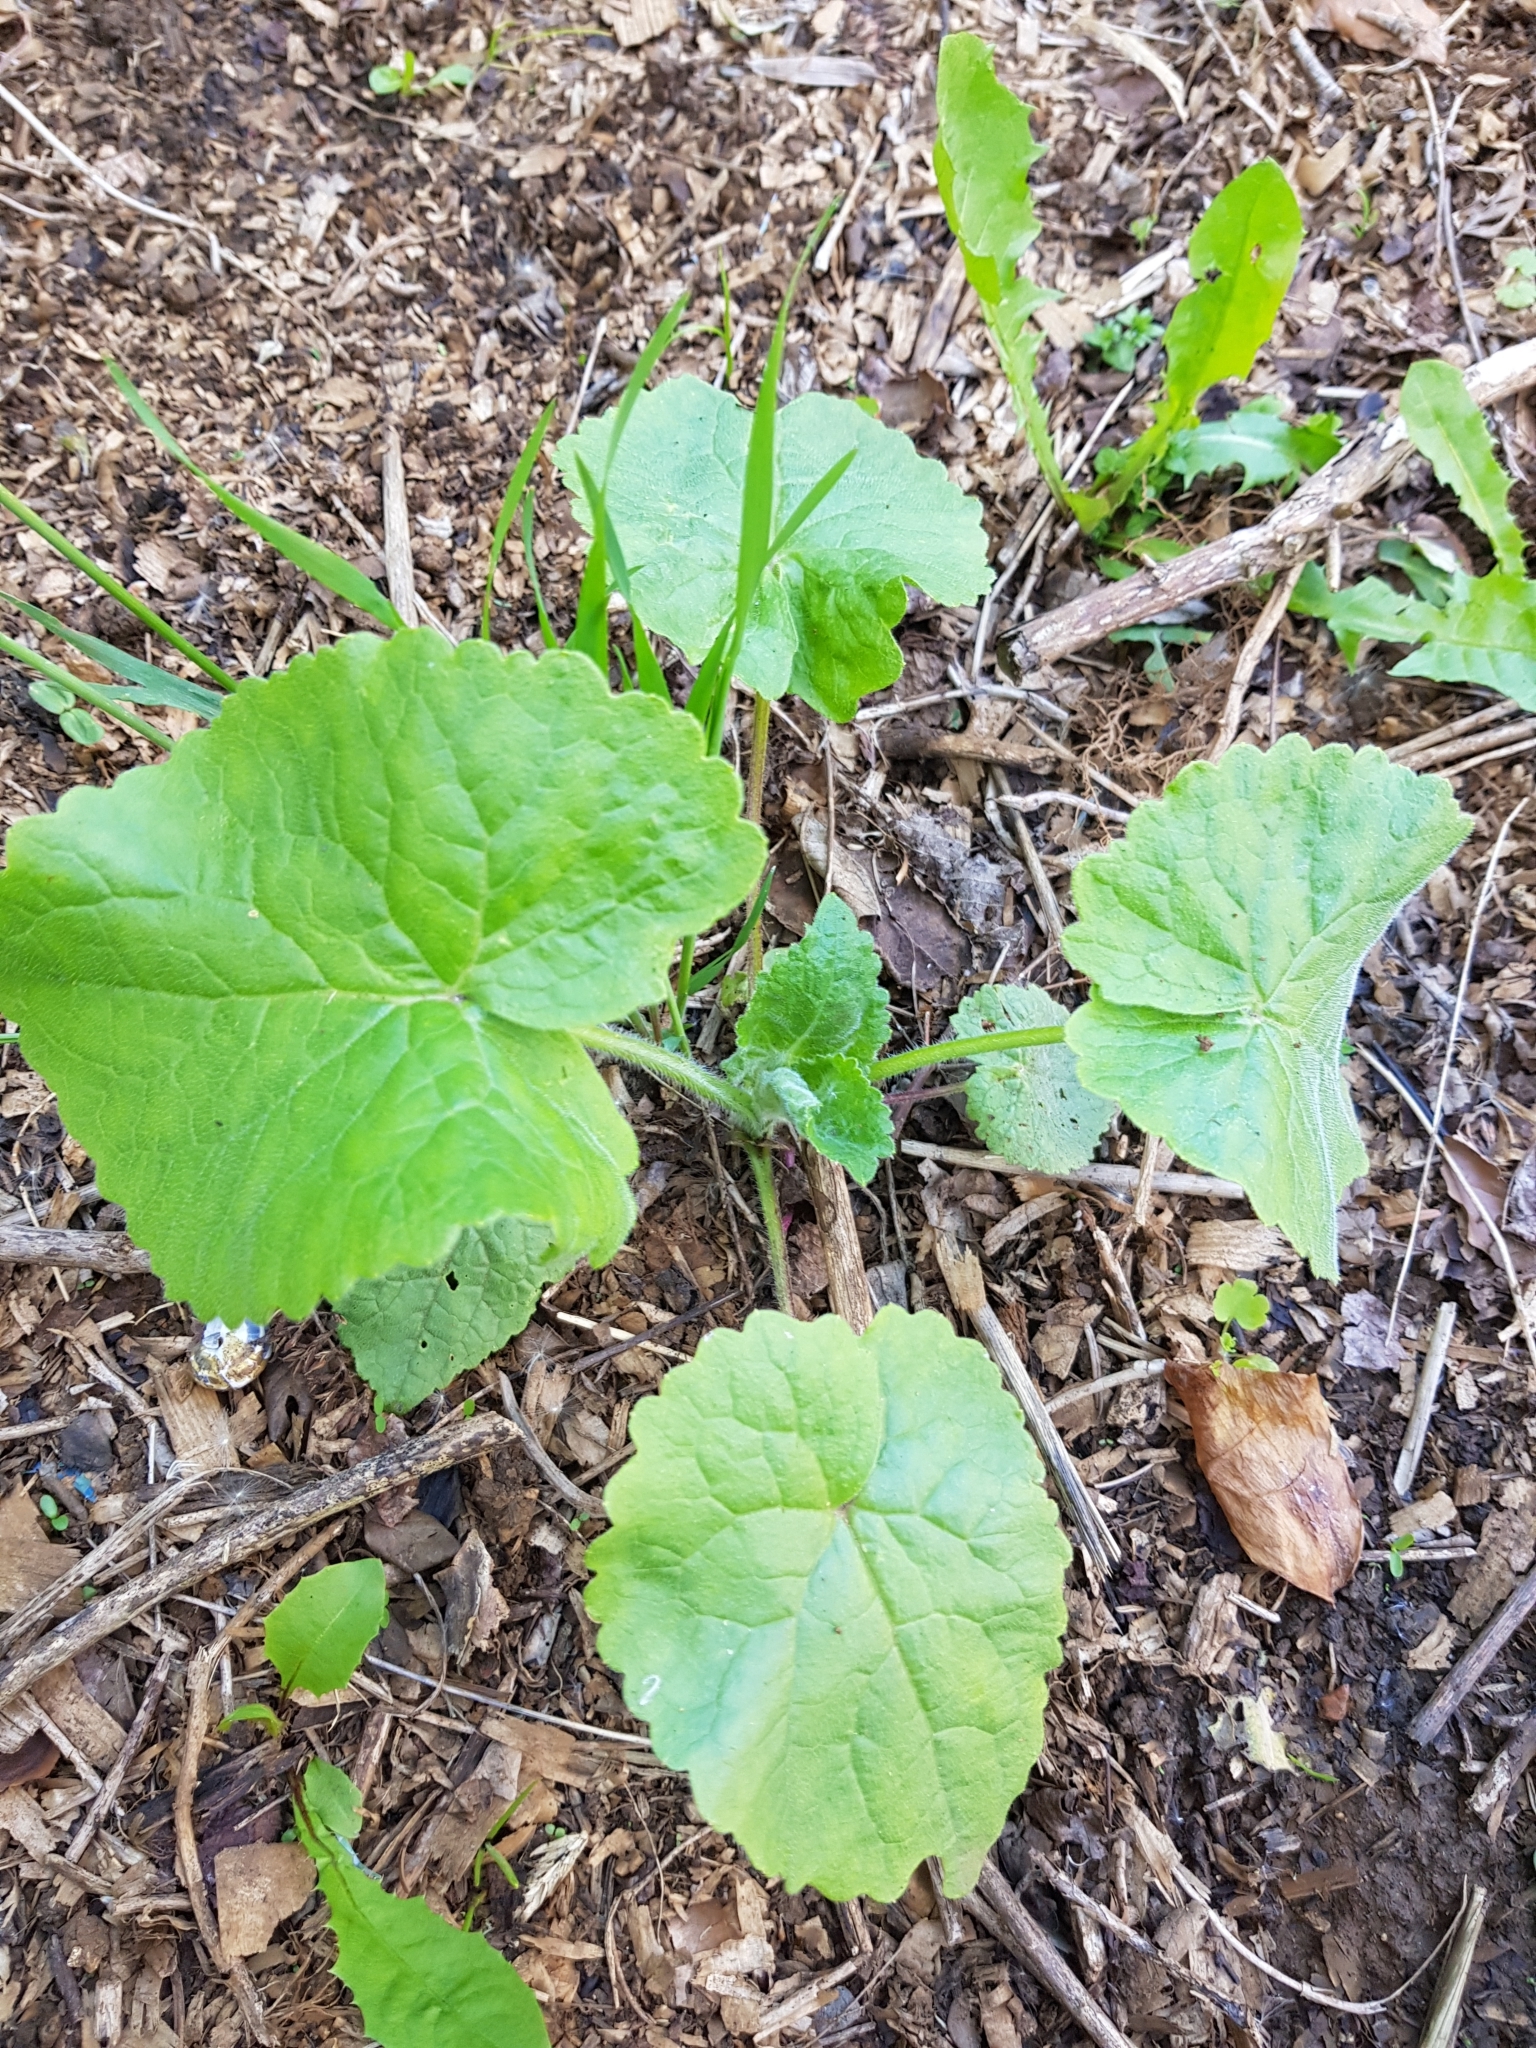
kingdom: Plantae
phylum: Tracheophyta
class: Magnoliopsida
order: Brassicales
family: Brassicaceae
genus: Lunaria
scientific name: Lunaria annua
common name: Honesty
